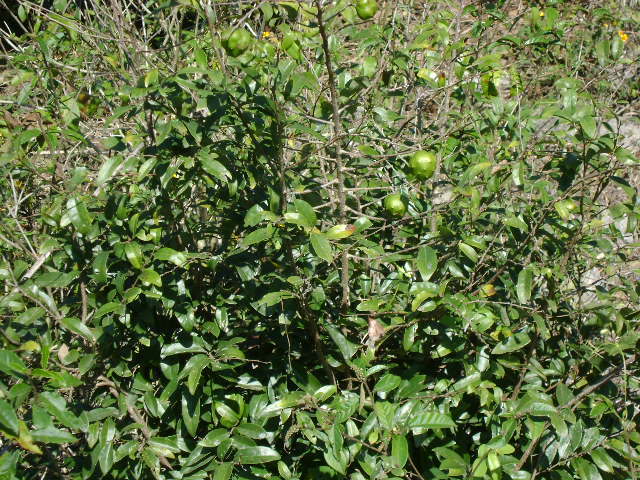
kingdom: Plantae
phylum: Tracheophyta
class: Magnoliopsida
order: Magnoliales
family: Annonaceae
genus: Annona
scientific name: Annona globiflora
